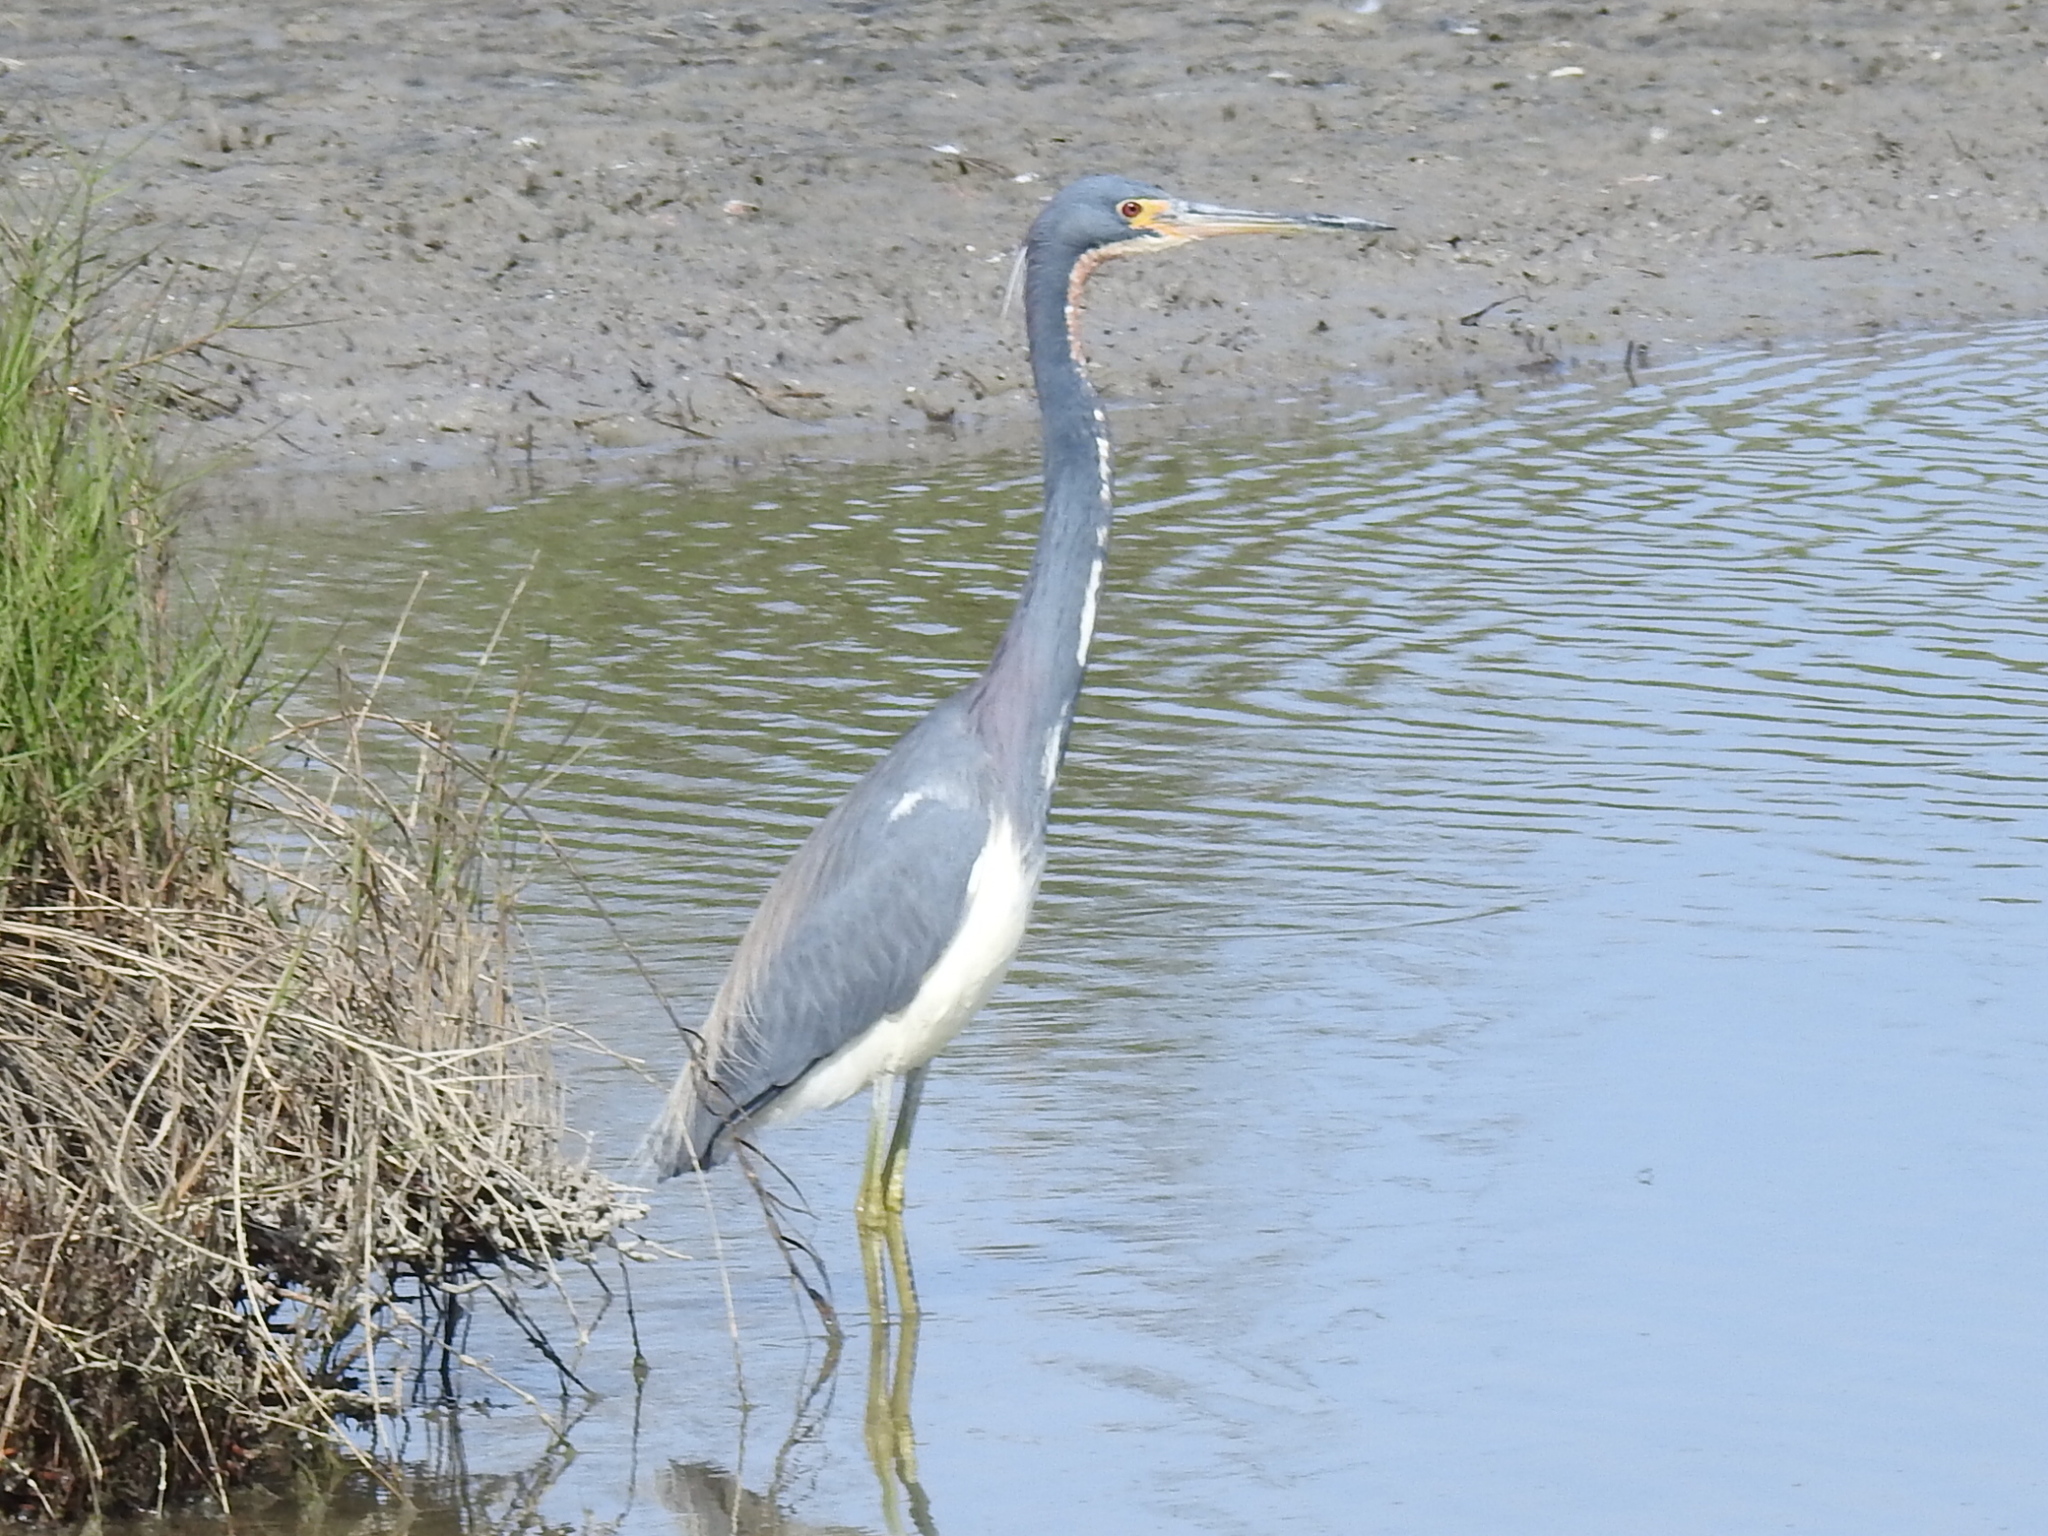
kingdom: Animalia
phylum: Chordata
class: Aves
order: Pelecaniformes
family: Ardeidae
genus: Egretta
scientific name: Egretta tricolor
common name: Tricolored heron
